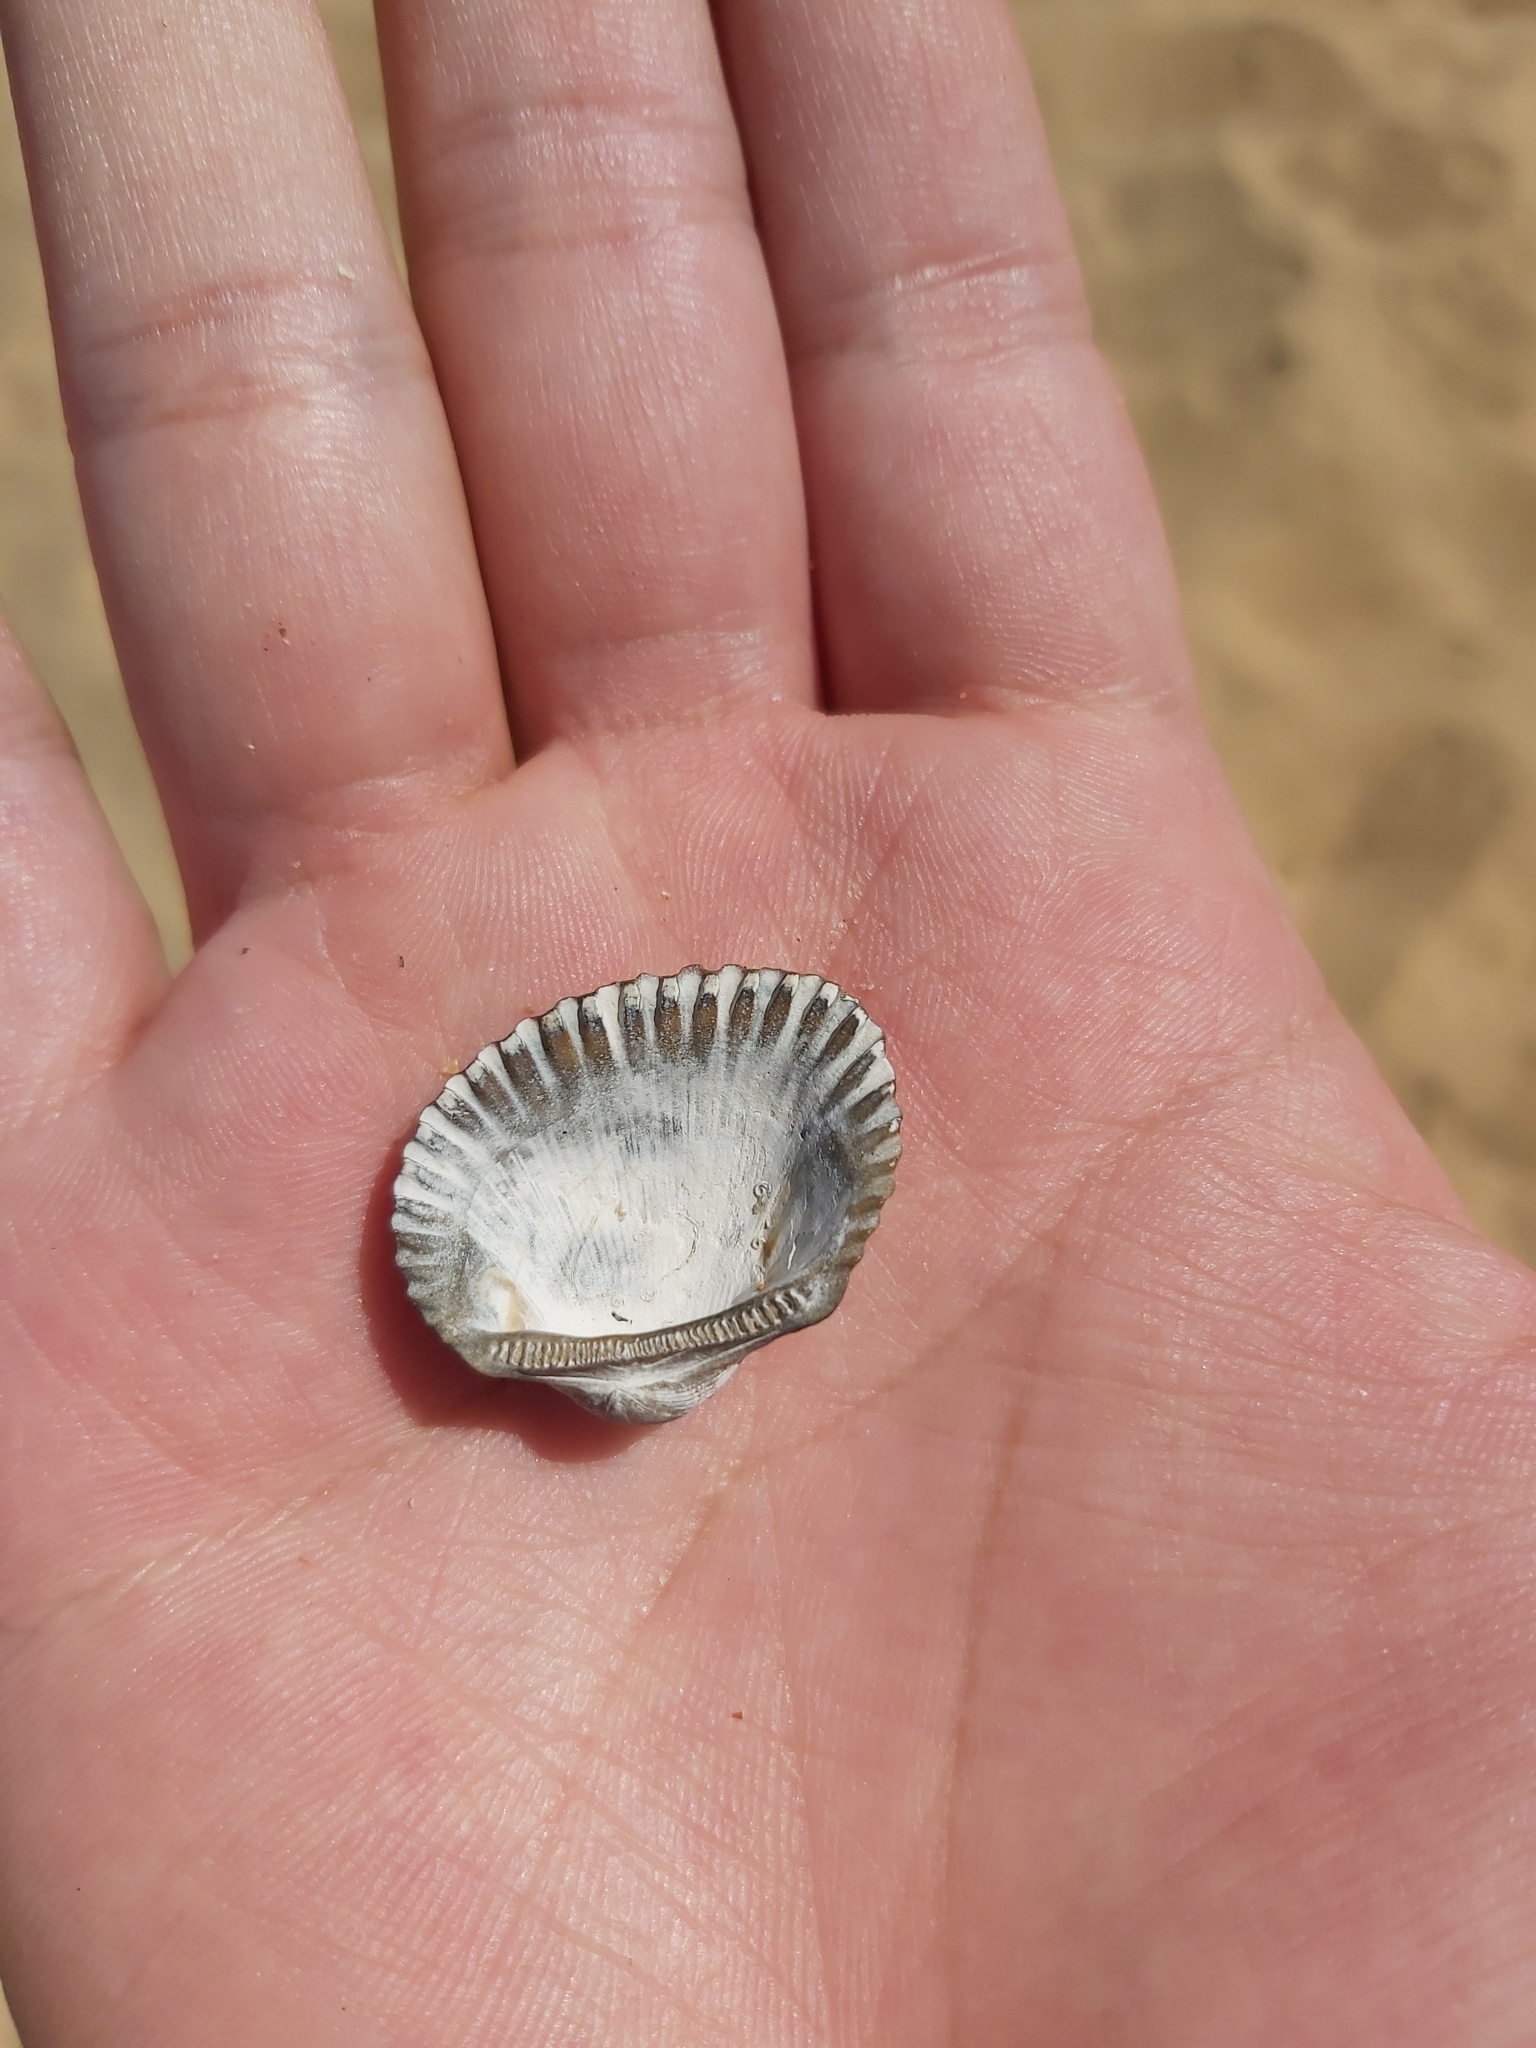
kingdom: Animalia
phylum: Mollusca
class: Bivalvia
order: Arcida
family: Arcidae
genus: Anadara
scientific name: Anadara trapezia
